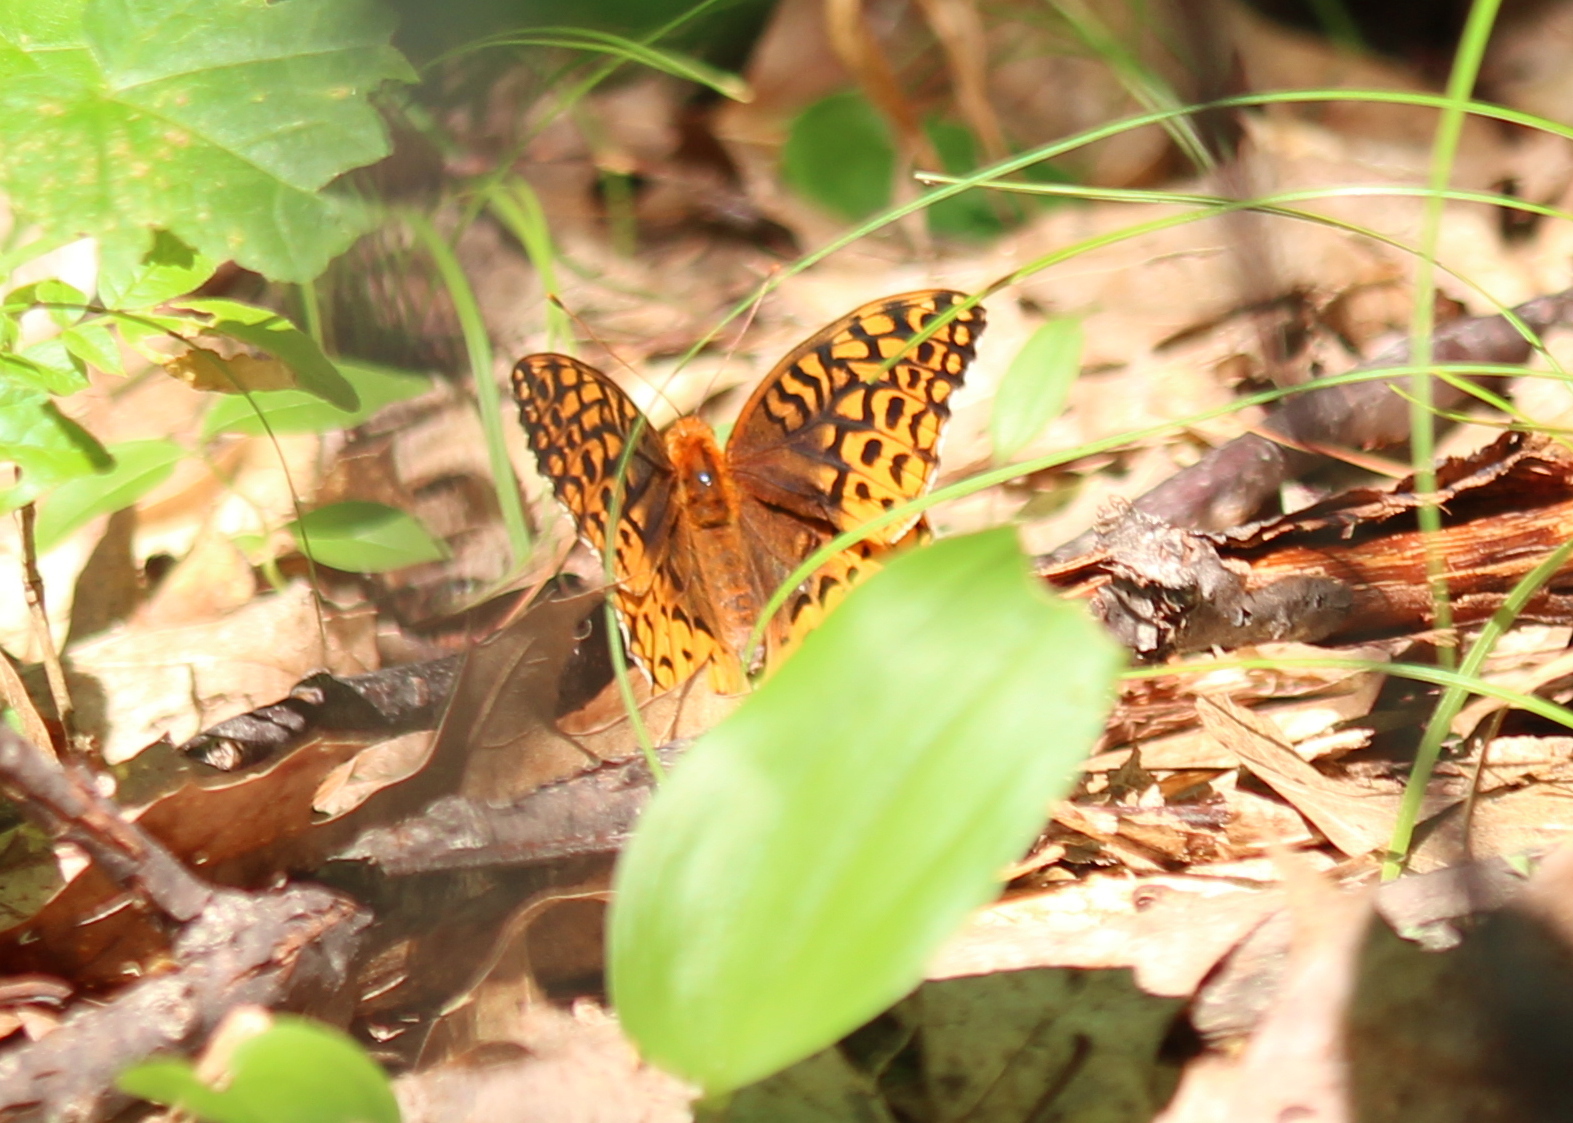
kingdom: Animalia
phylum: Arthropoda
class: Insecta
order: Lepidoptera
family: Nymphalidae
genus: Speyeria
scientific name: Speyeria cybele
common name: Great spangled fritillary
